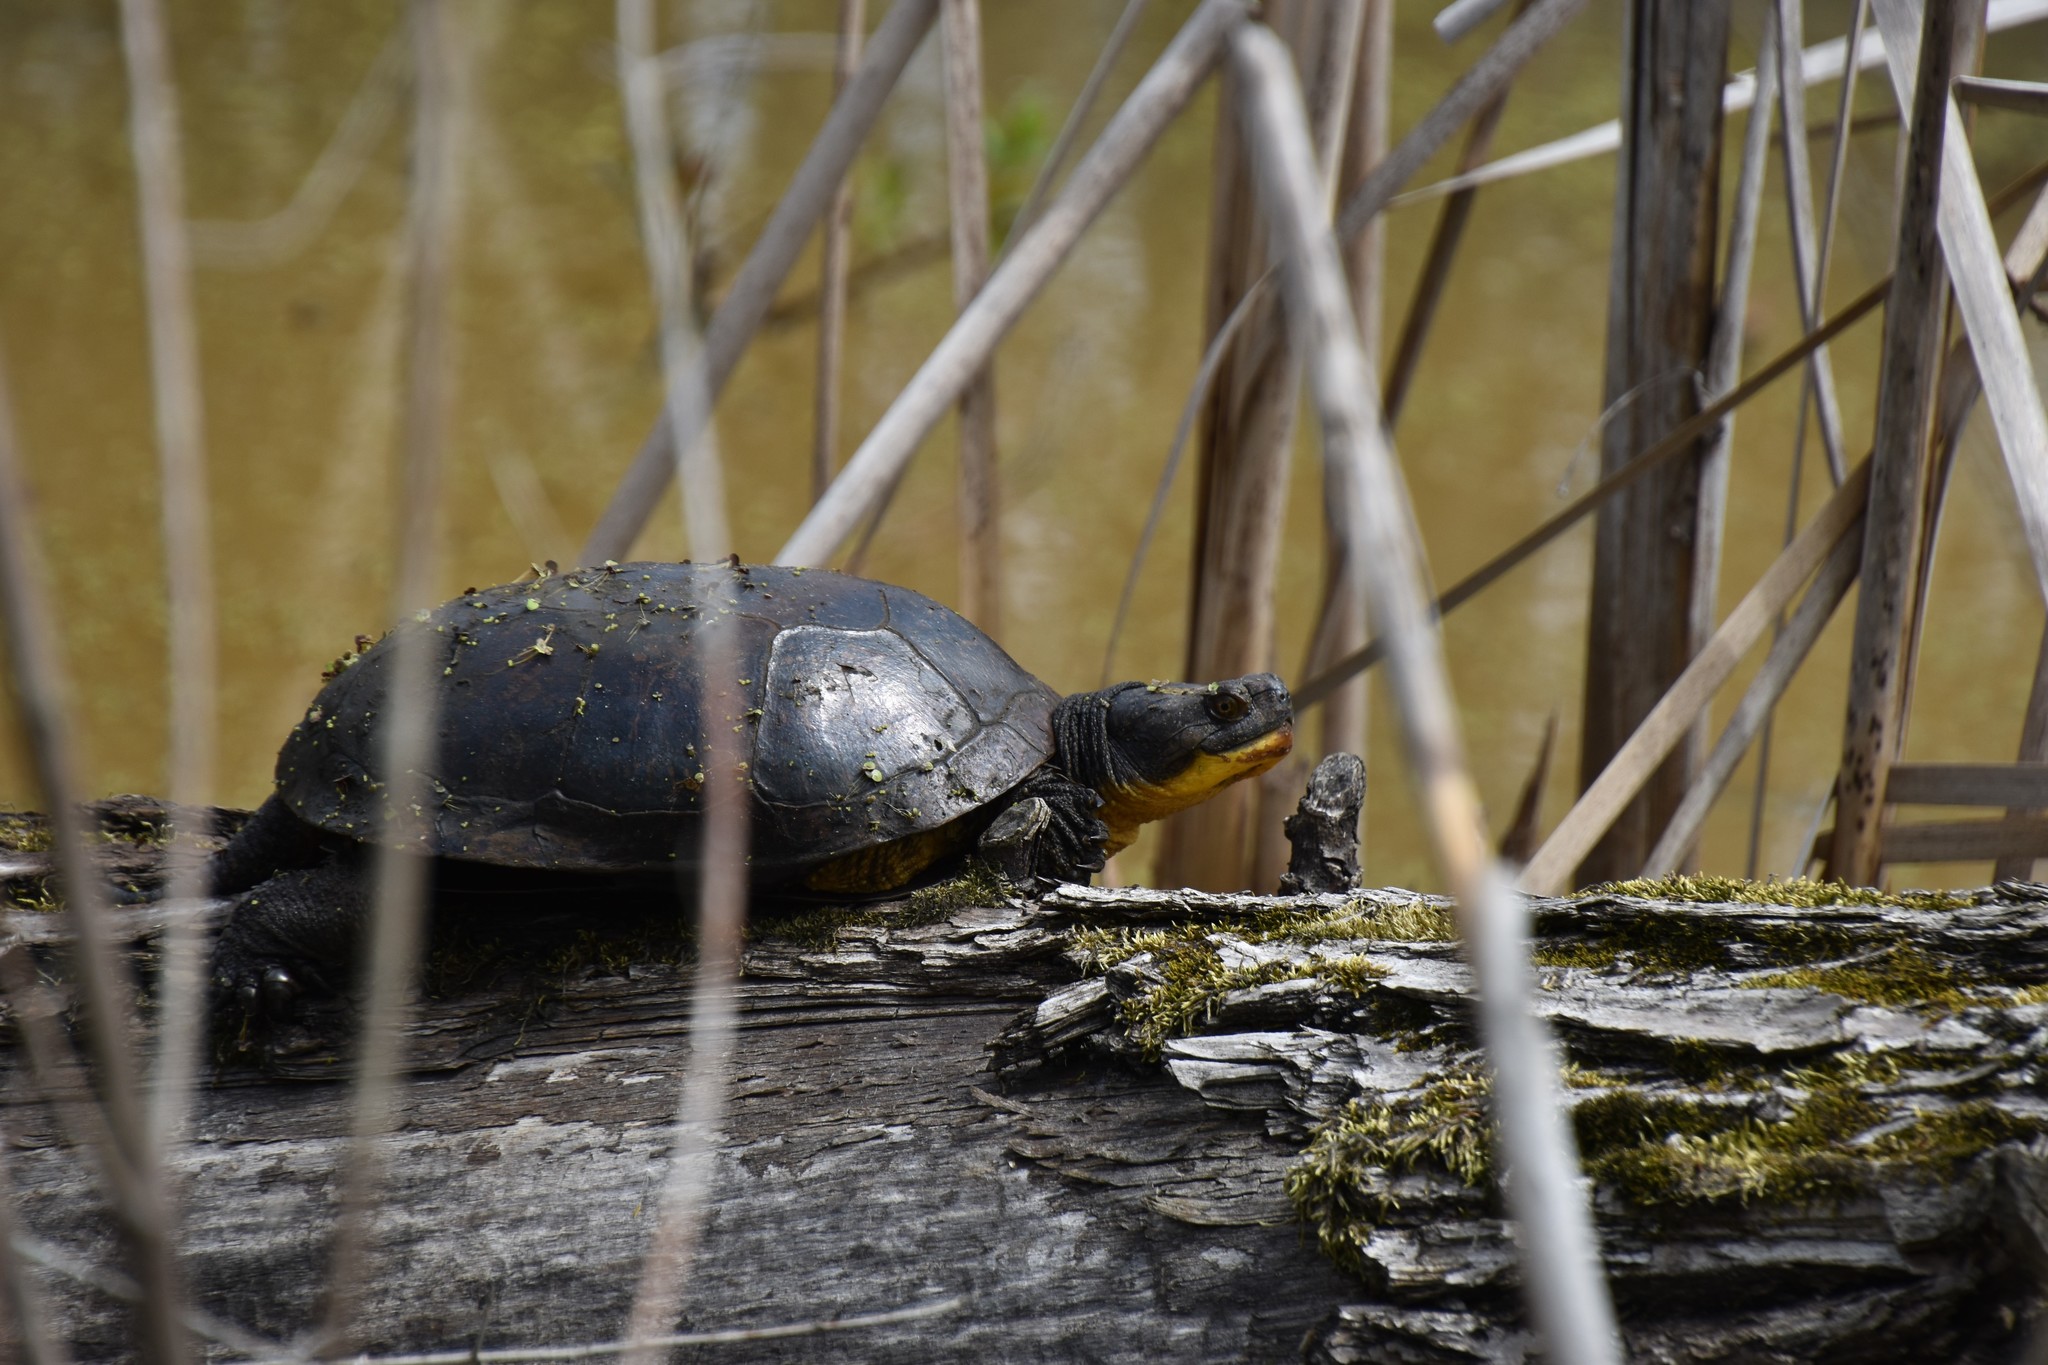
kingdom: Animalia
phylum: Chordata
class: Testudines
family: Emydidae
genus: Emys
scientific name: Emys blandingii
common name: Blanding's turtle
